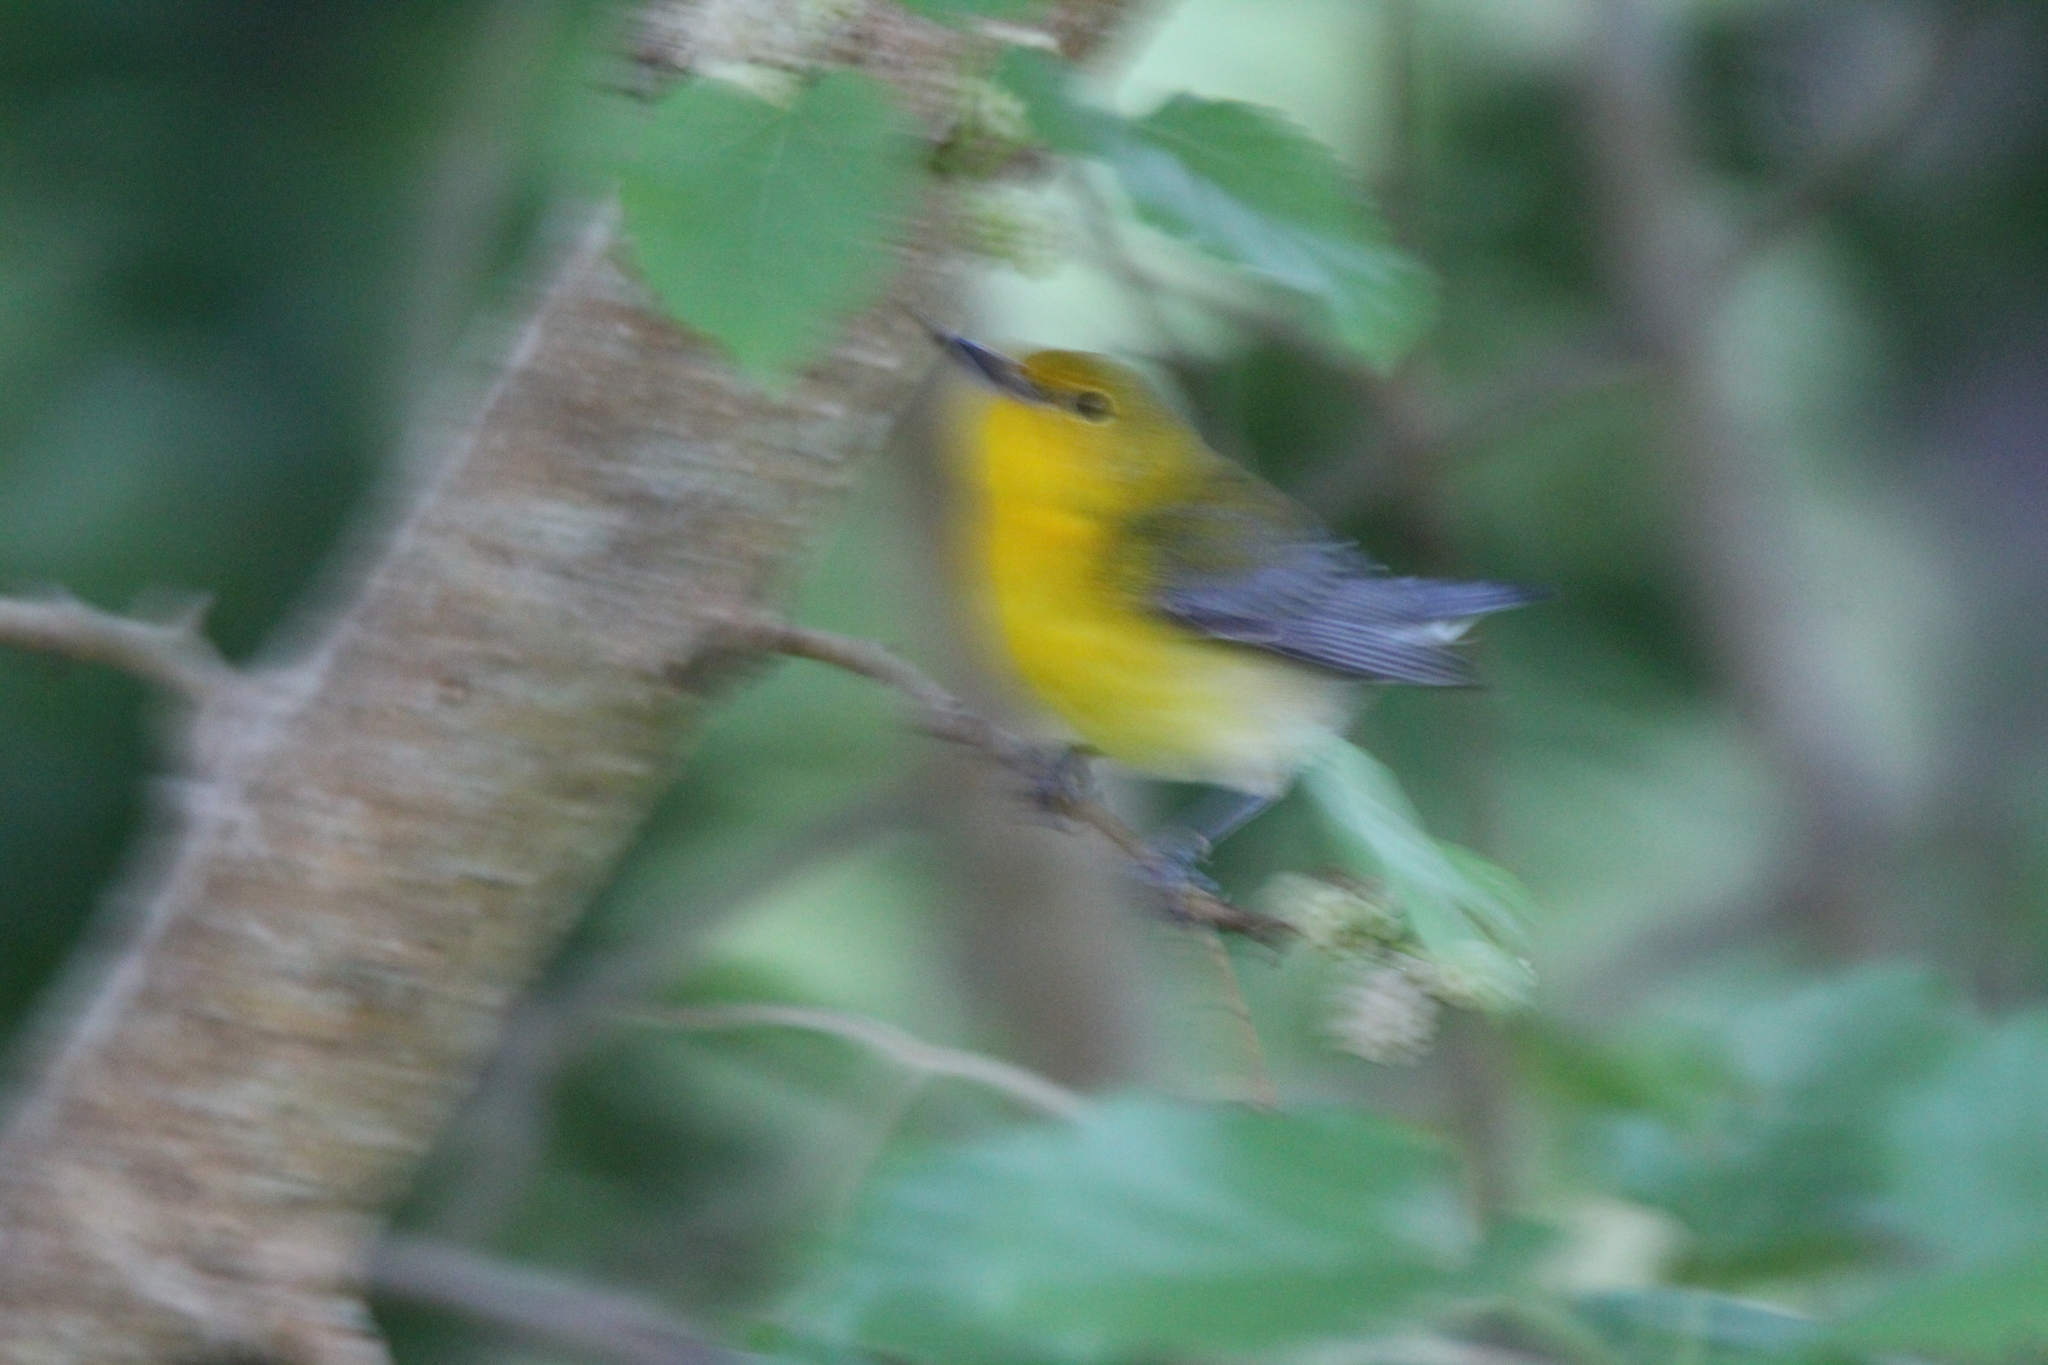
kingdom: Animalia
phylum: Chordata
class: Aves
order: Passeriformes
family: Parulidae
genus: Protonotaria
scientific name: Protonotaria citrea
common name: Prothonotary warbler
